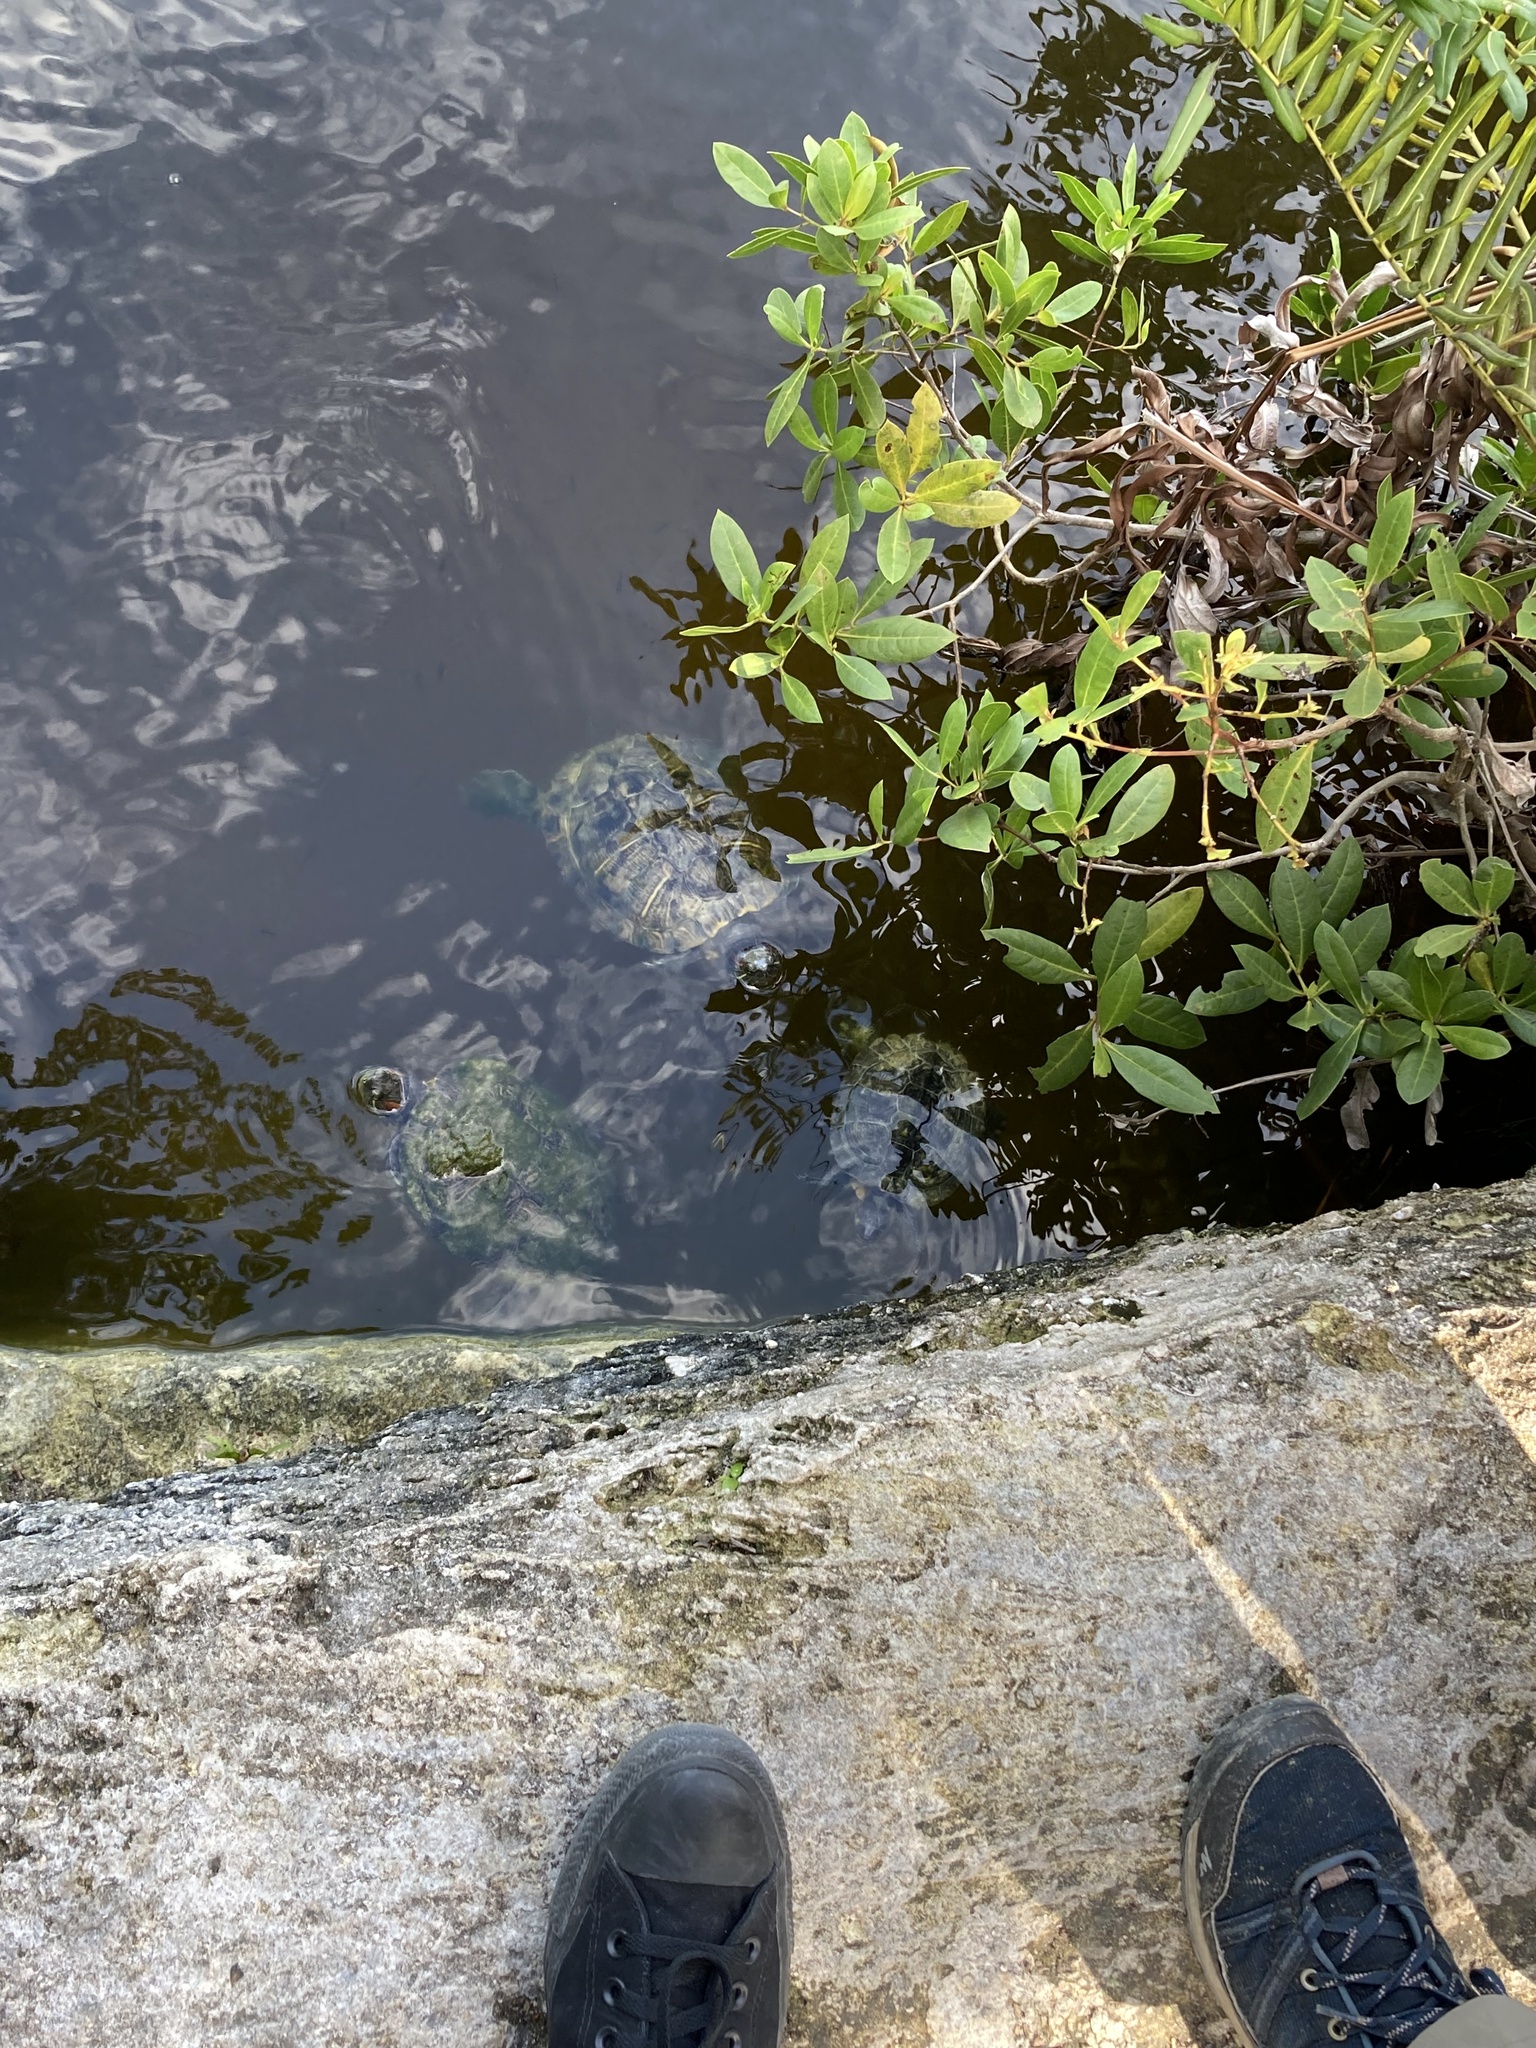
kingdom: Animalia
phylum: Chordata
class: Testudines
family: Emydidae
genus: Trachemys
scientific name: Trachemys scripta
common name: Slider
